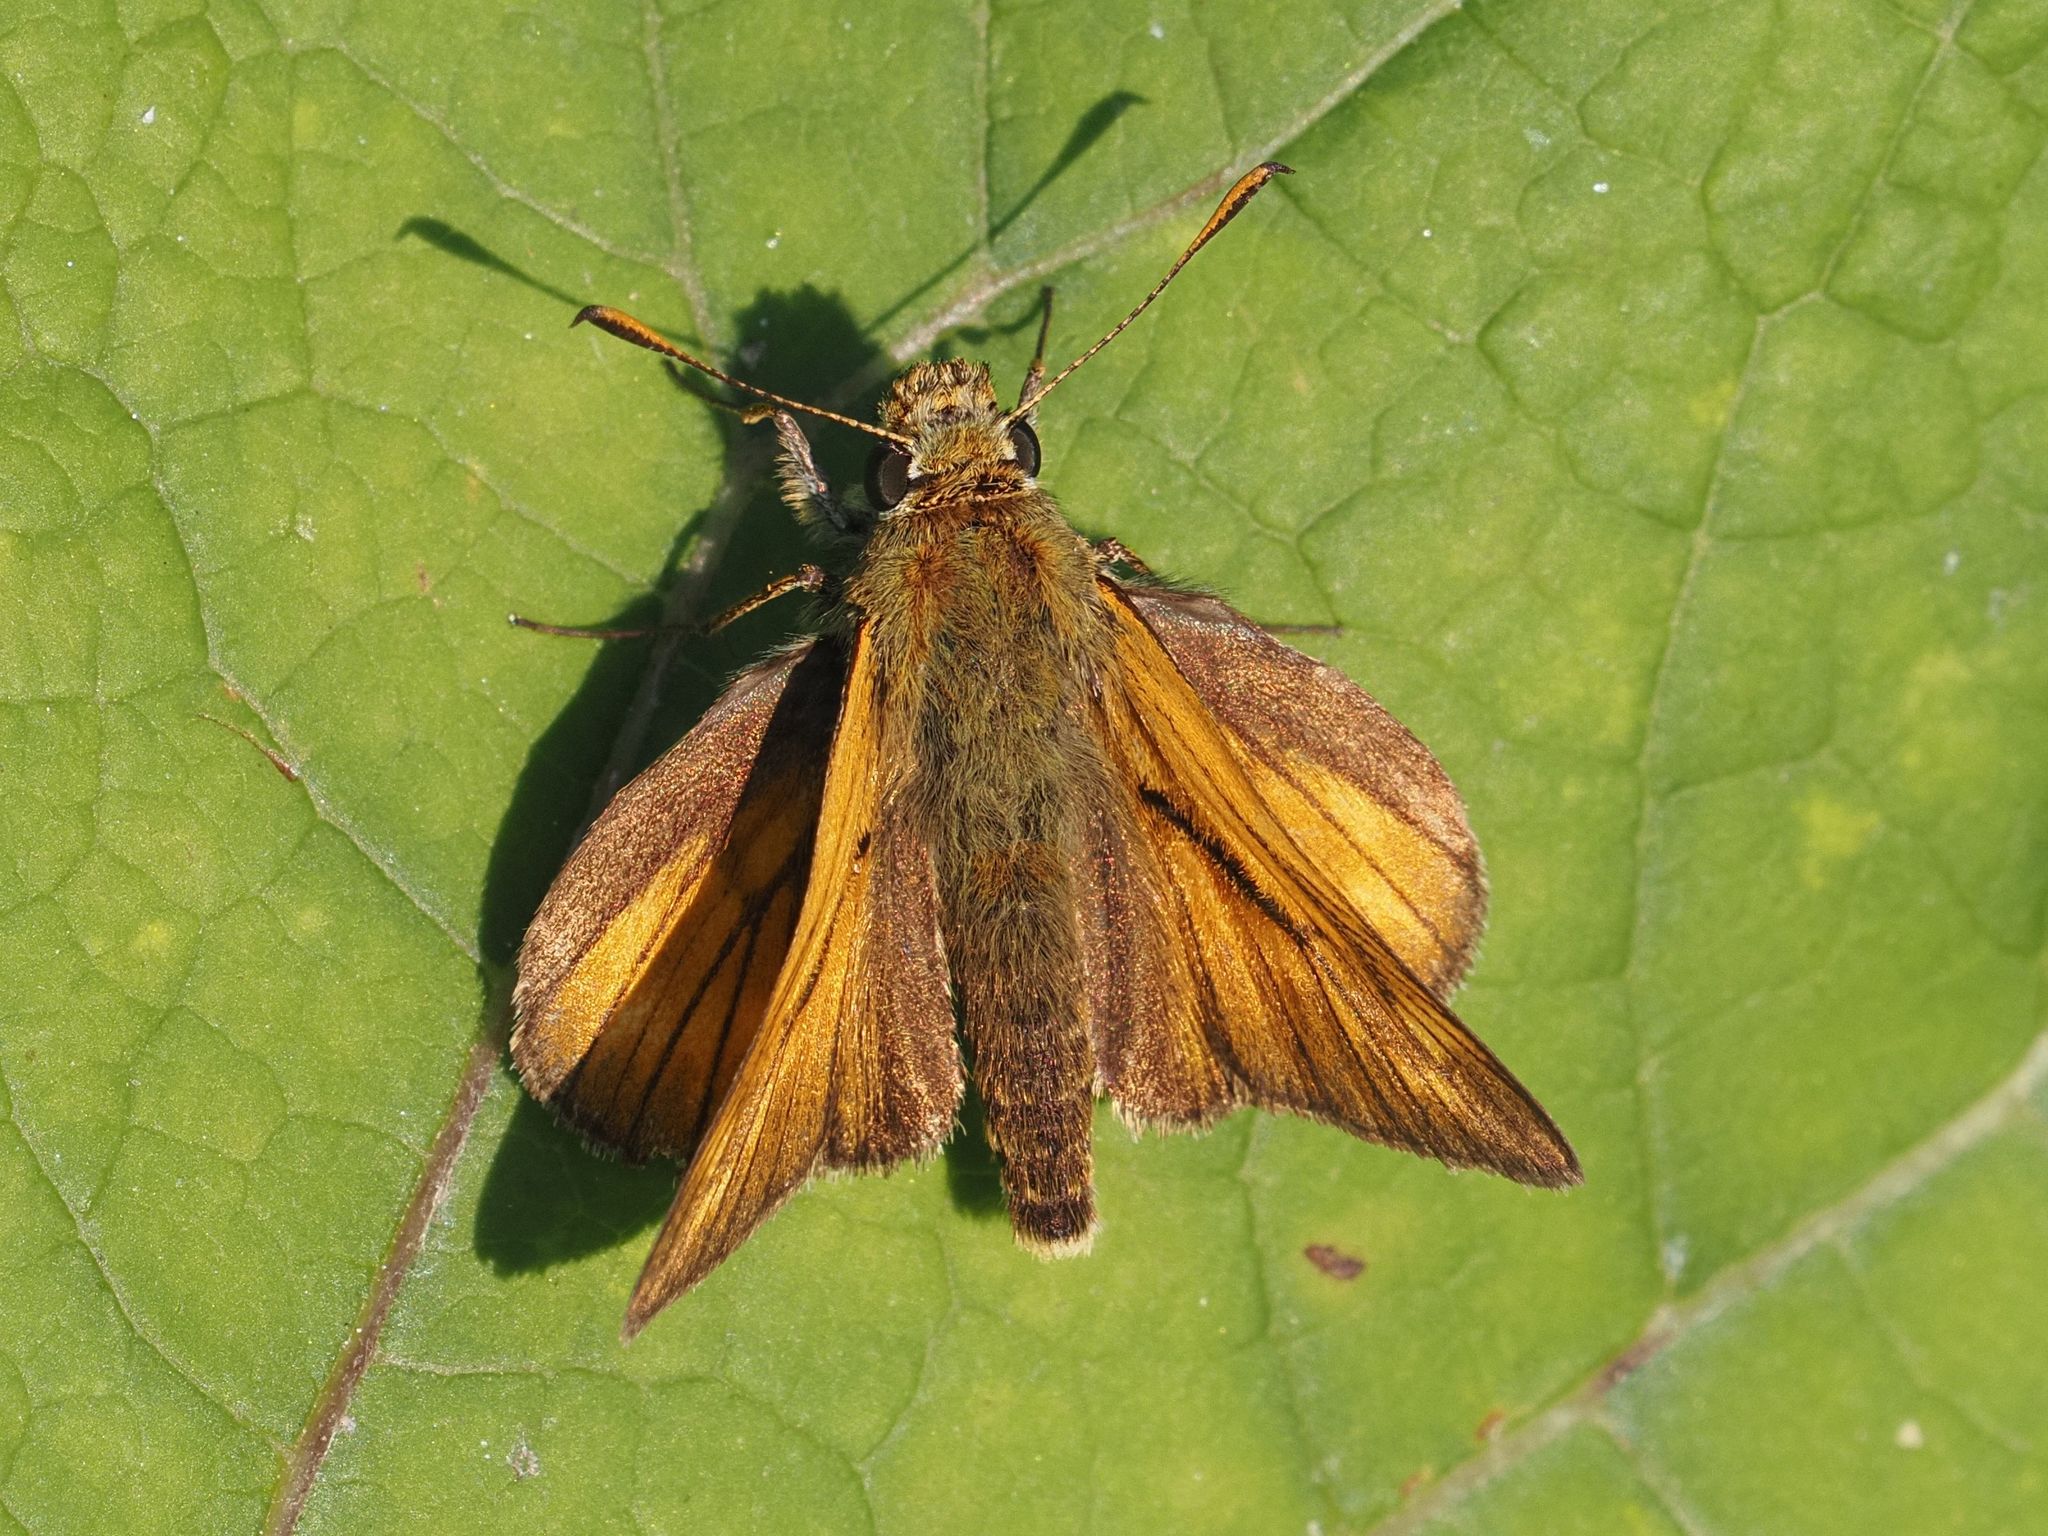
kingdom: Animalia
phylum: Arthropoda
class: Insecta
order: Lepidoptera
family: Hesperiidae
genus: Ochlodes
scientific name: Ochlodes venata
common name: Large skipper
